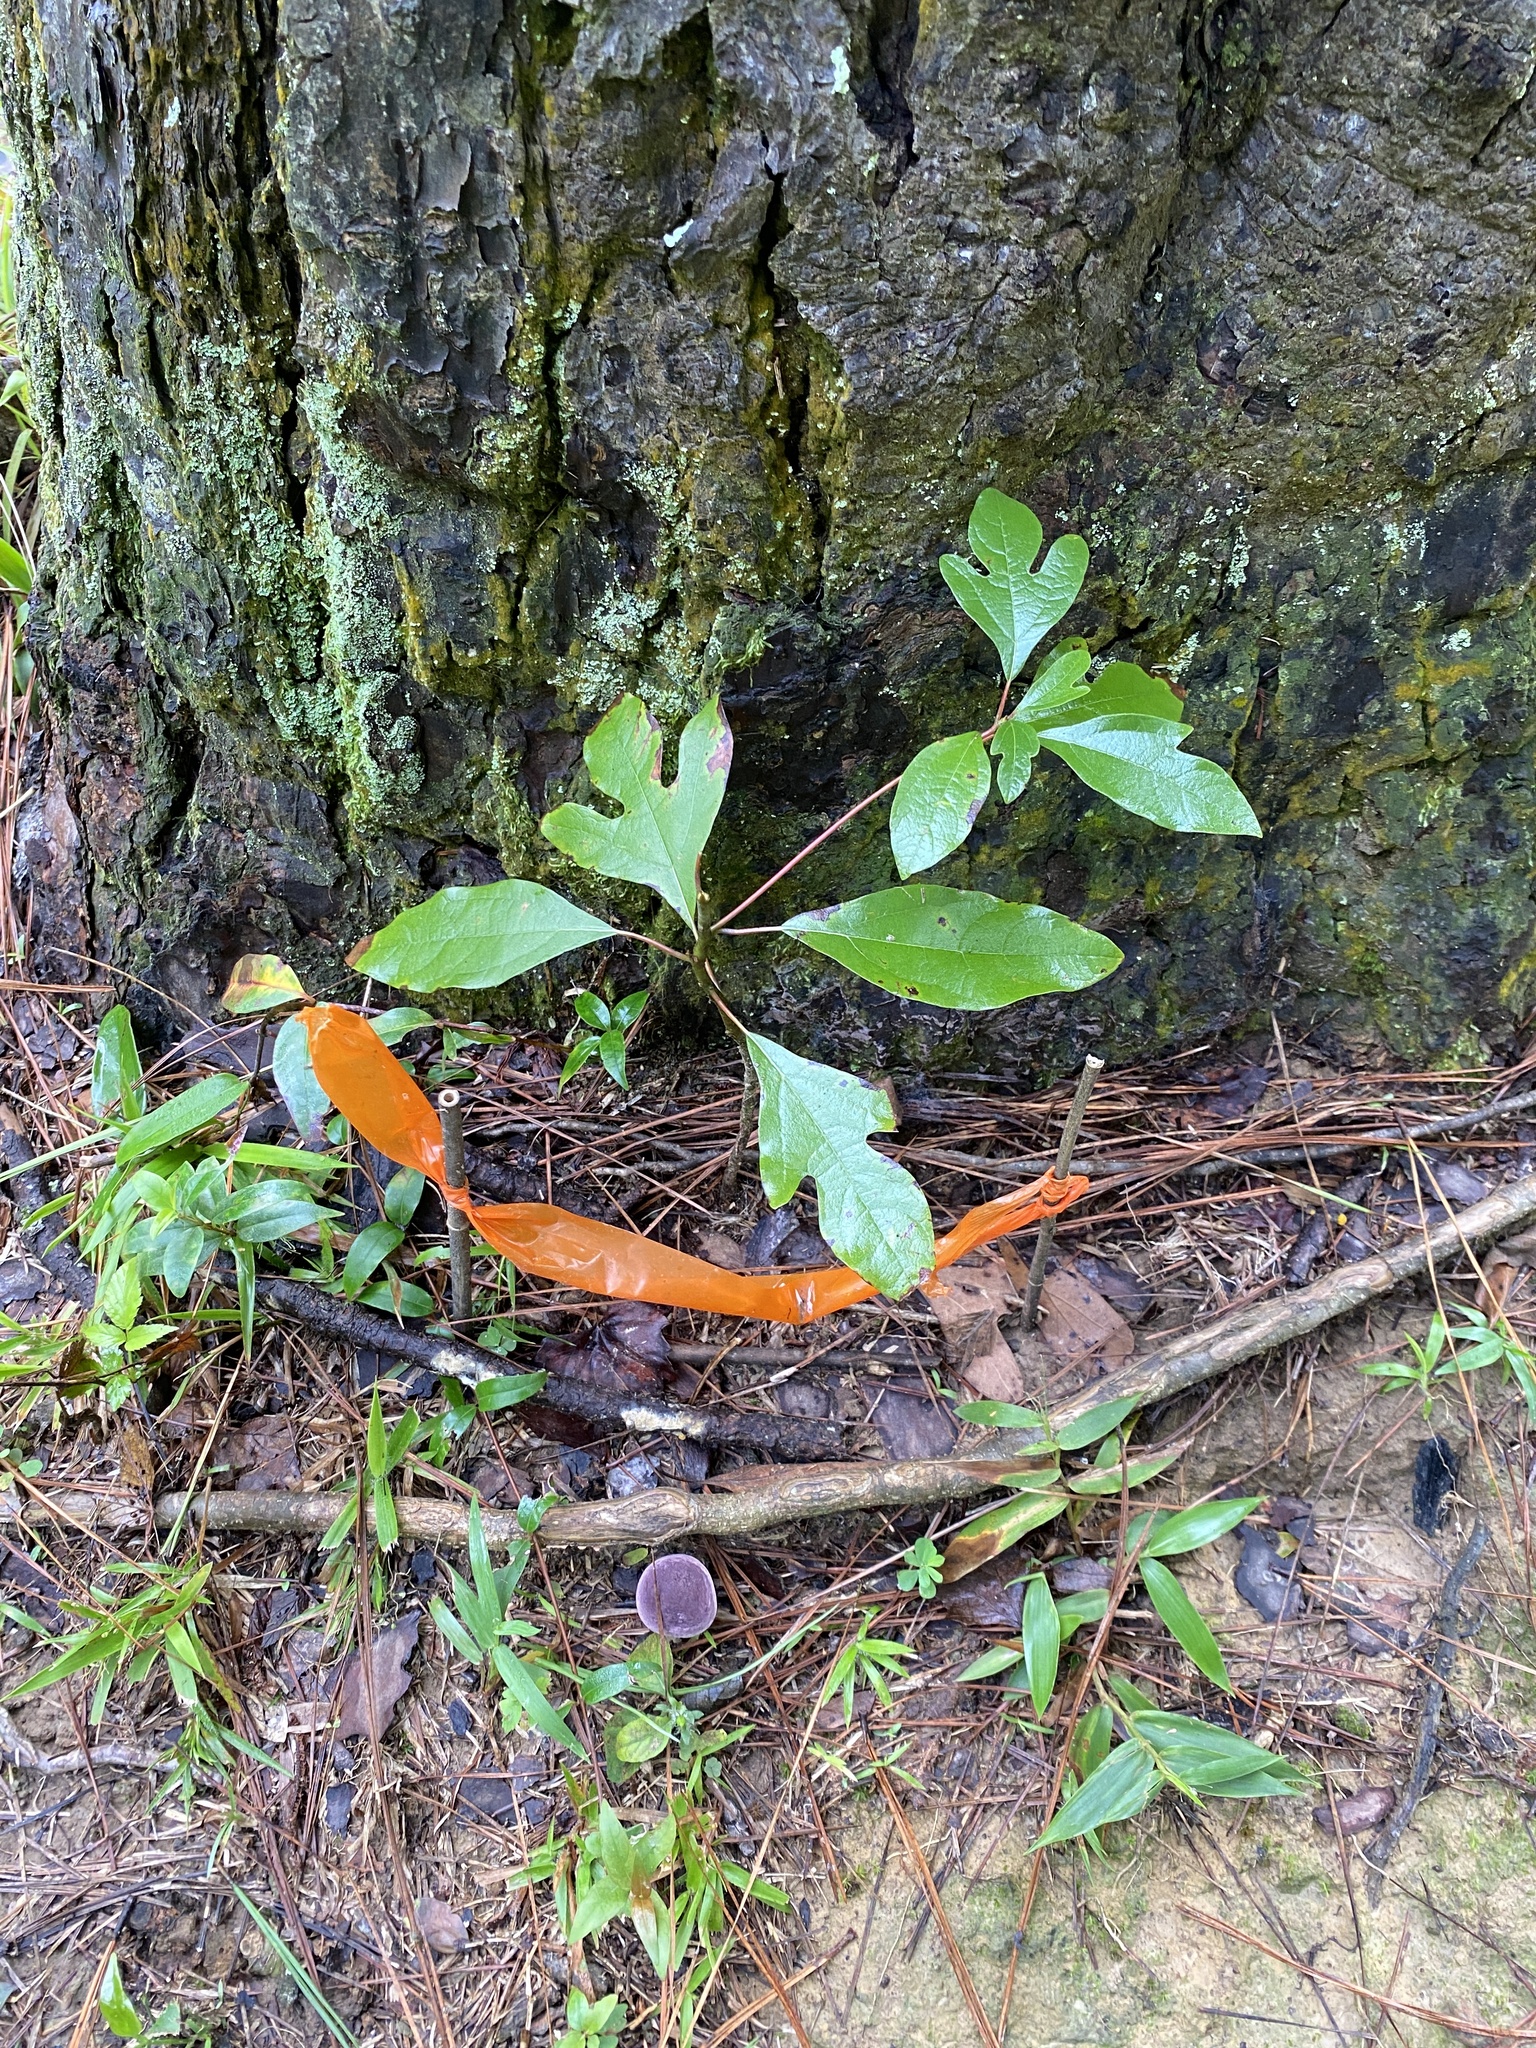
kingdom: Plantae
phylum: Tracheophyta
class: Magnoliopsida
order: Laurales
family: Lauraceae
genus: Sassafras
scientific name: Sassafras albidum
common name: Sassafras
